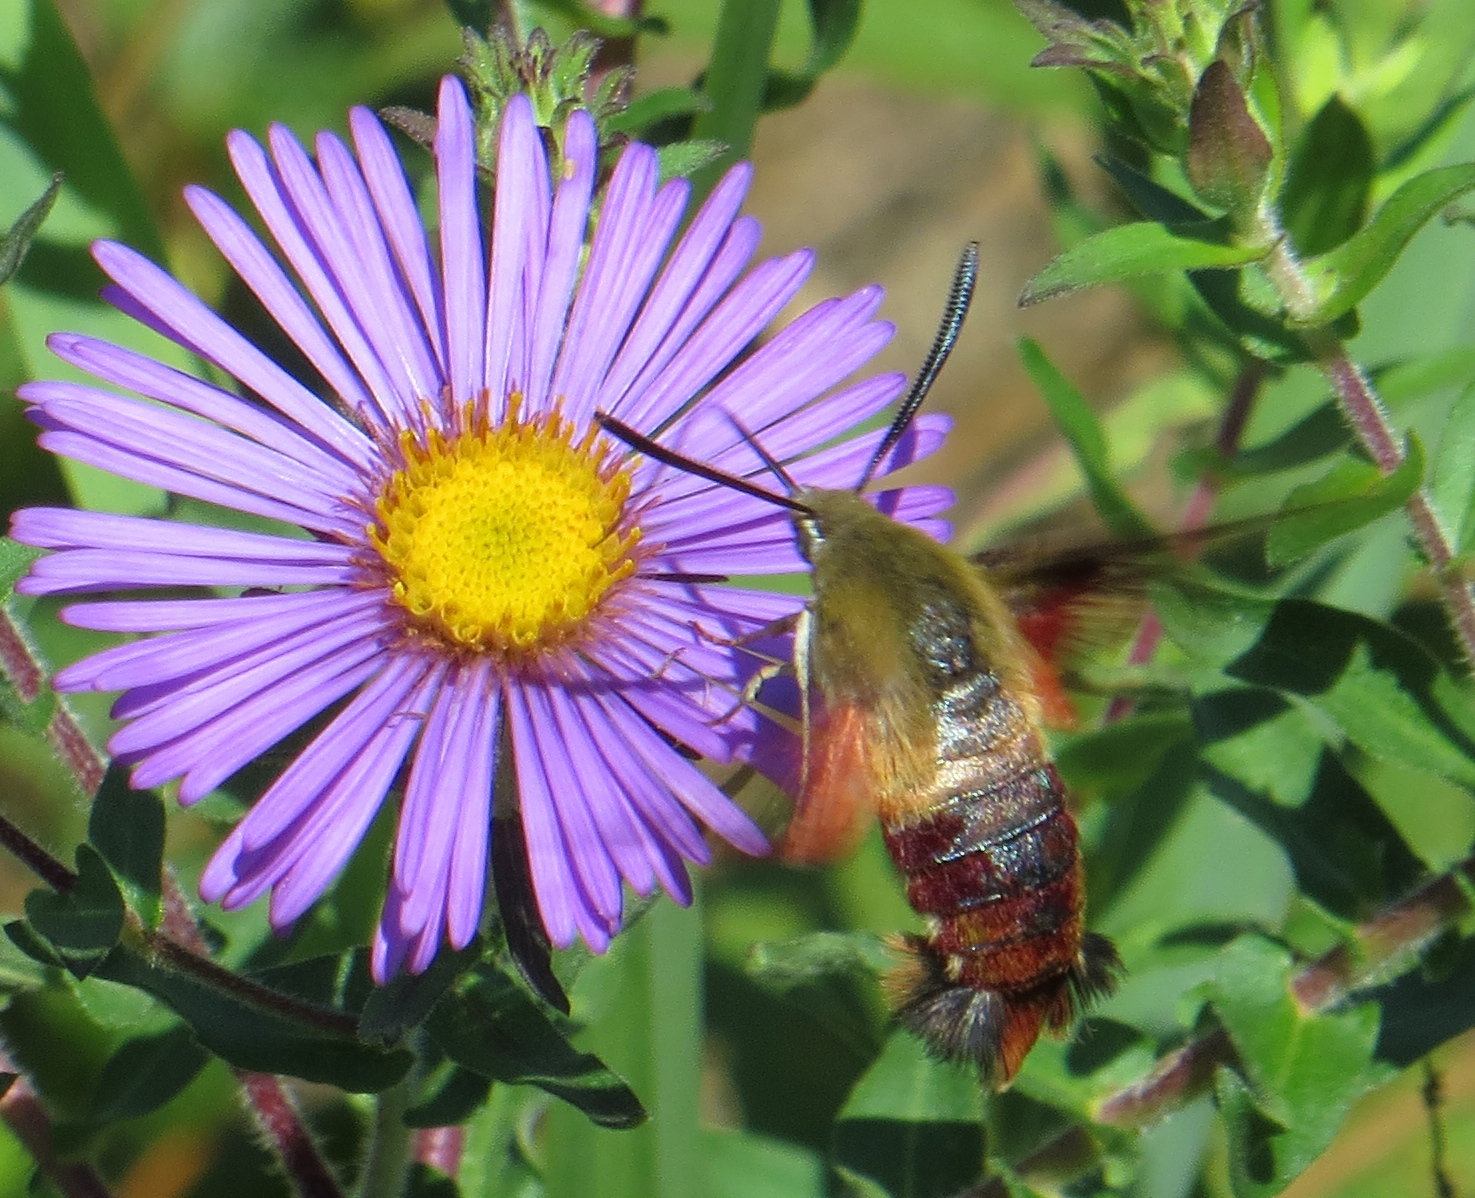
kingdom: Animalia
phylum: Arthropoda
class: Insecta
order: Lepidoptera
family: Sphingidae
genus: Hemaris
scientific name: Hemaris thysbe
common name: Common clear-wing
